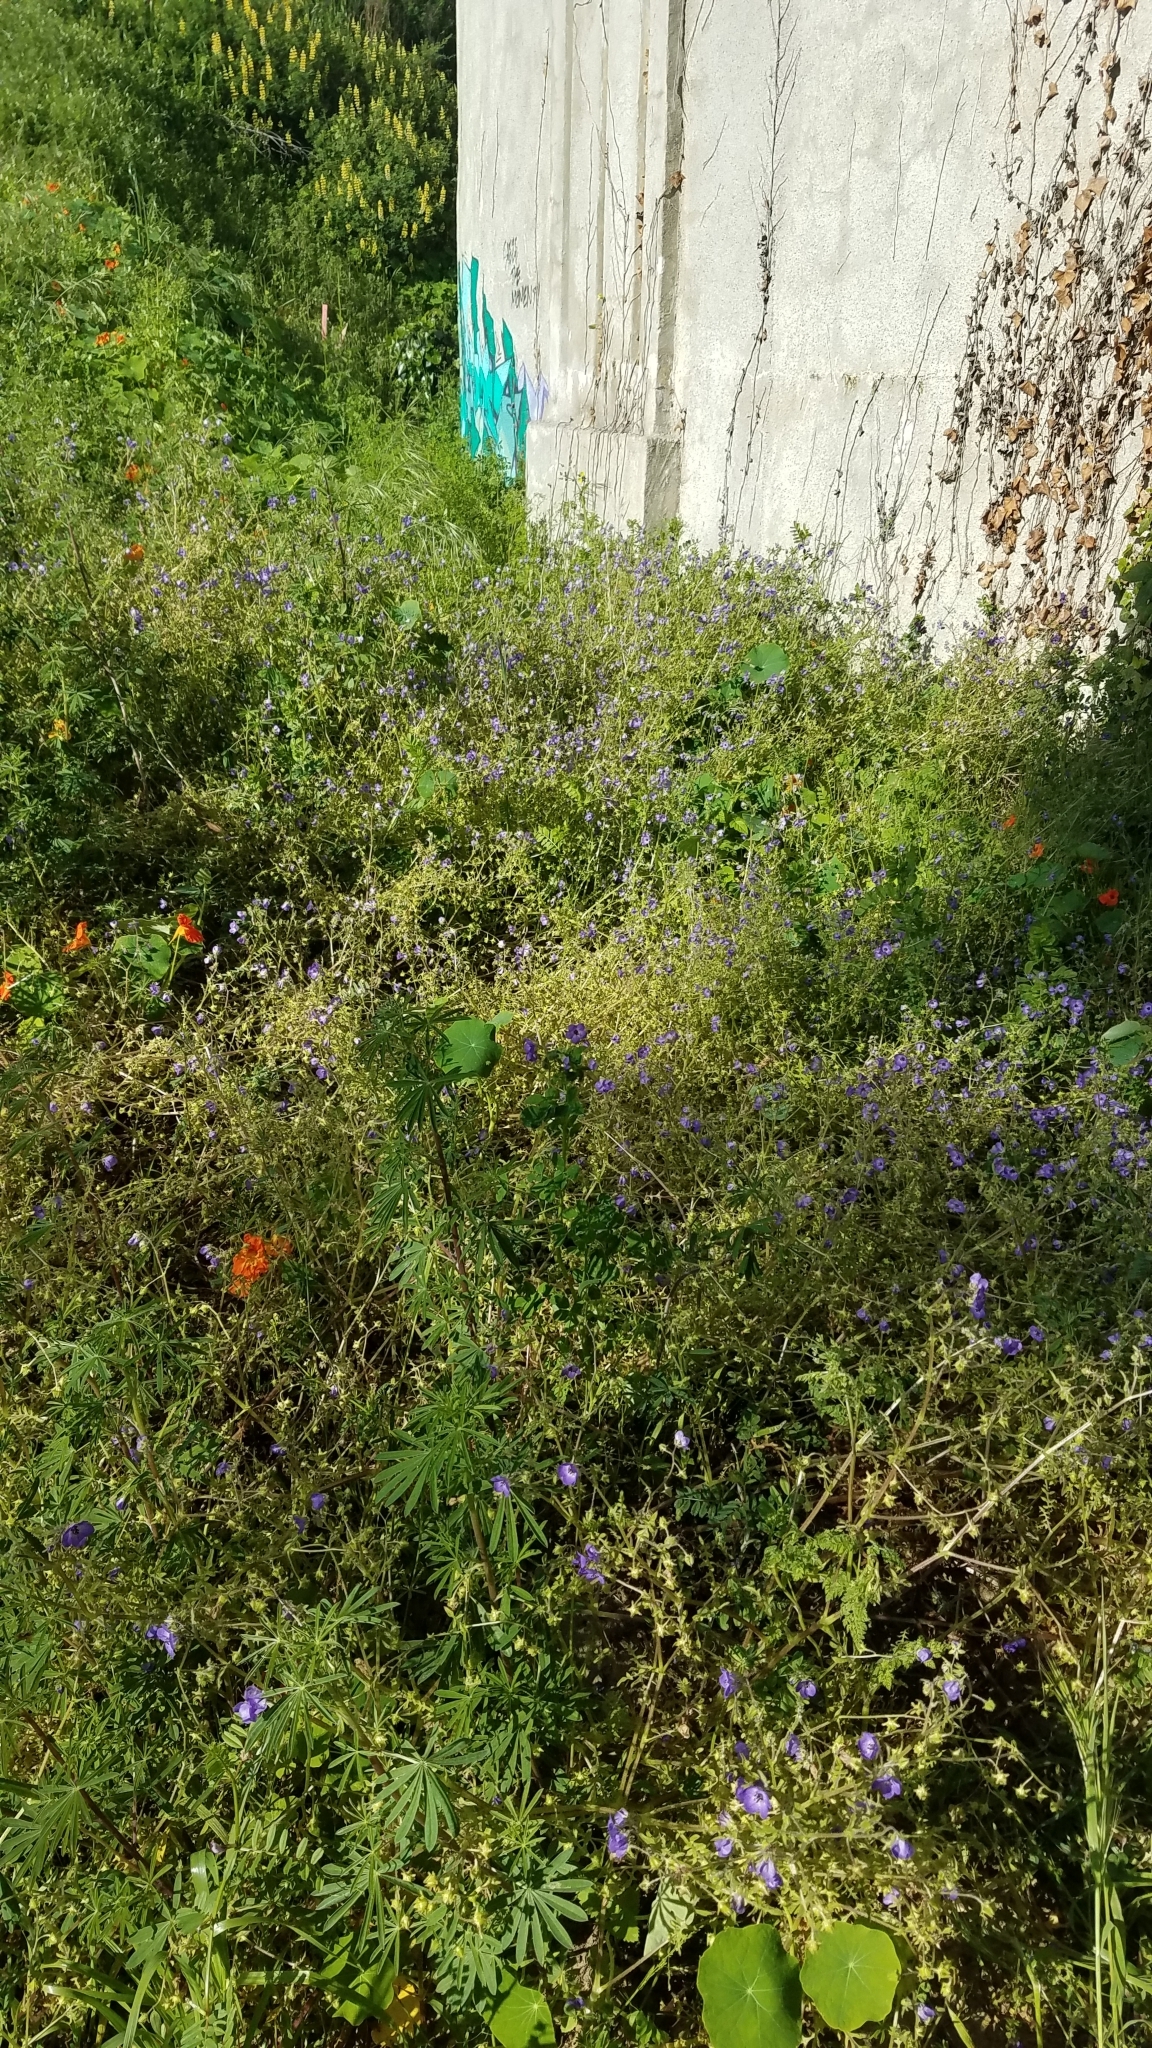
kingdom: Plantae
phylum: Tracheophyta
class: Magnoliopsida
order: Boraginales
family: Hydrophyllaceae
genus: Pholistoma
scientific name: Pholistoma auritum
